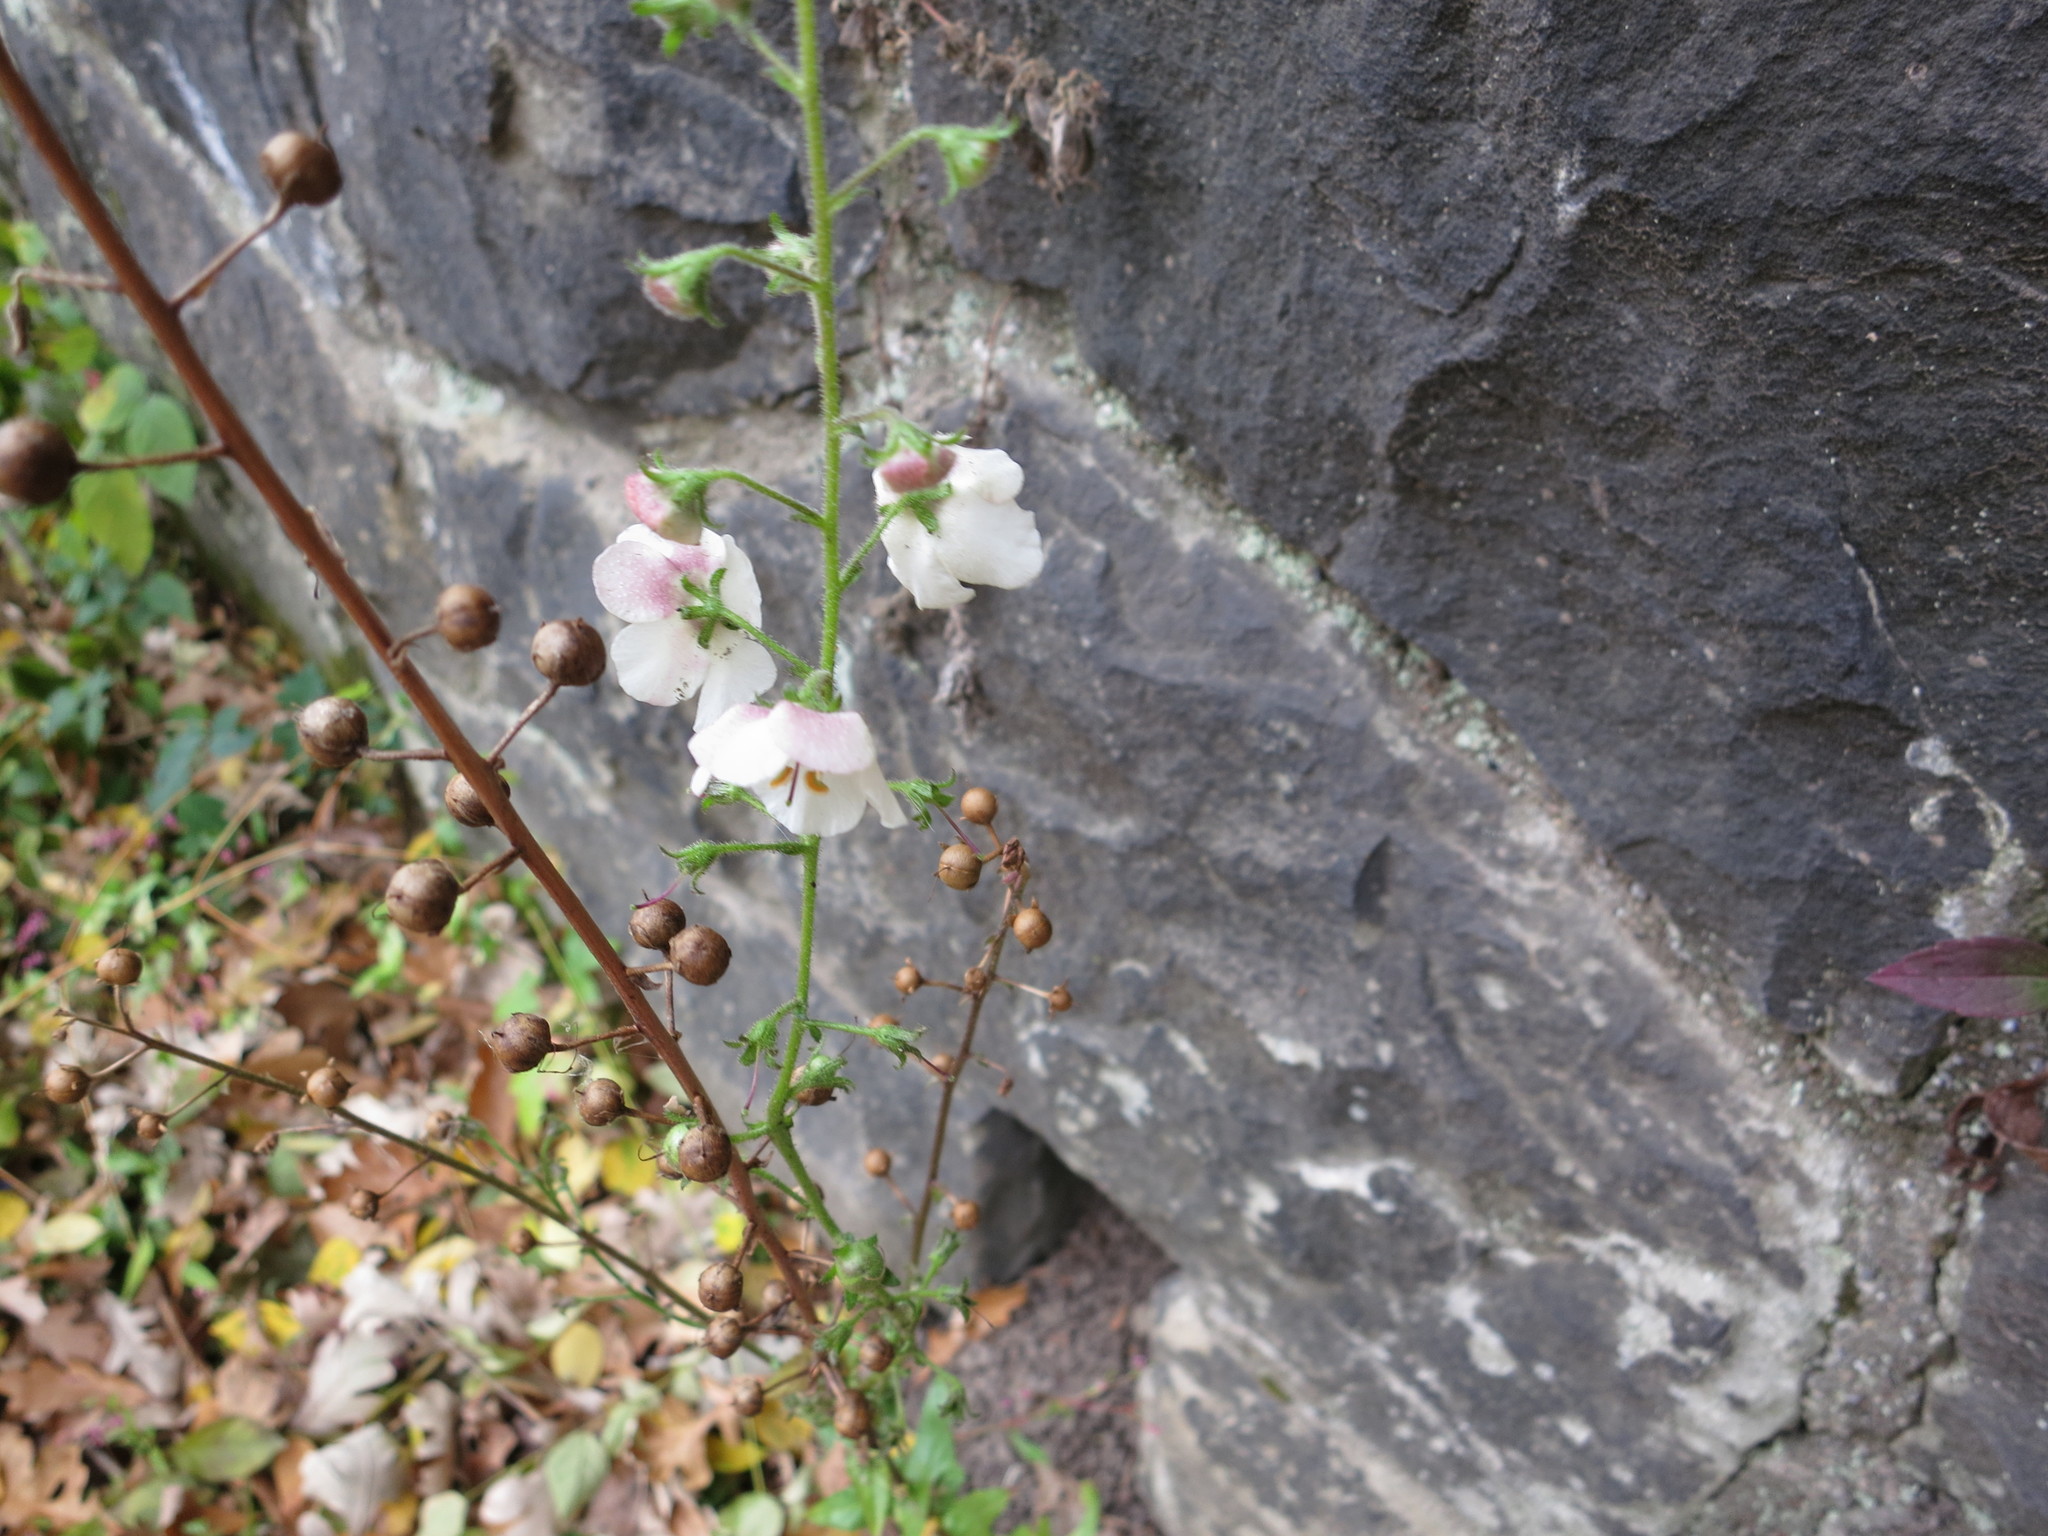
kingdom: Plantae
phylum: Tracheophyta
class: Magnoliopsida
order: Lamiales
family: Scrophulariaceae
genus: Verbascum
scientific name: Verbascum blattaria
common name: Moth mullein
